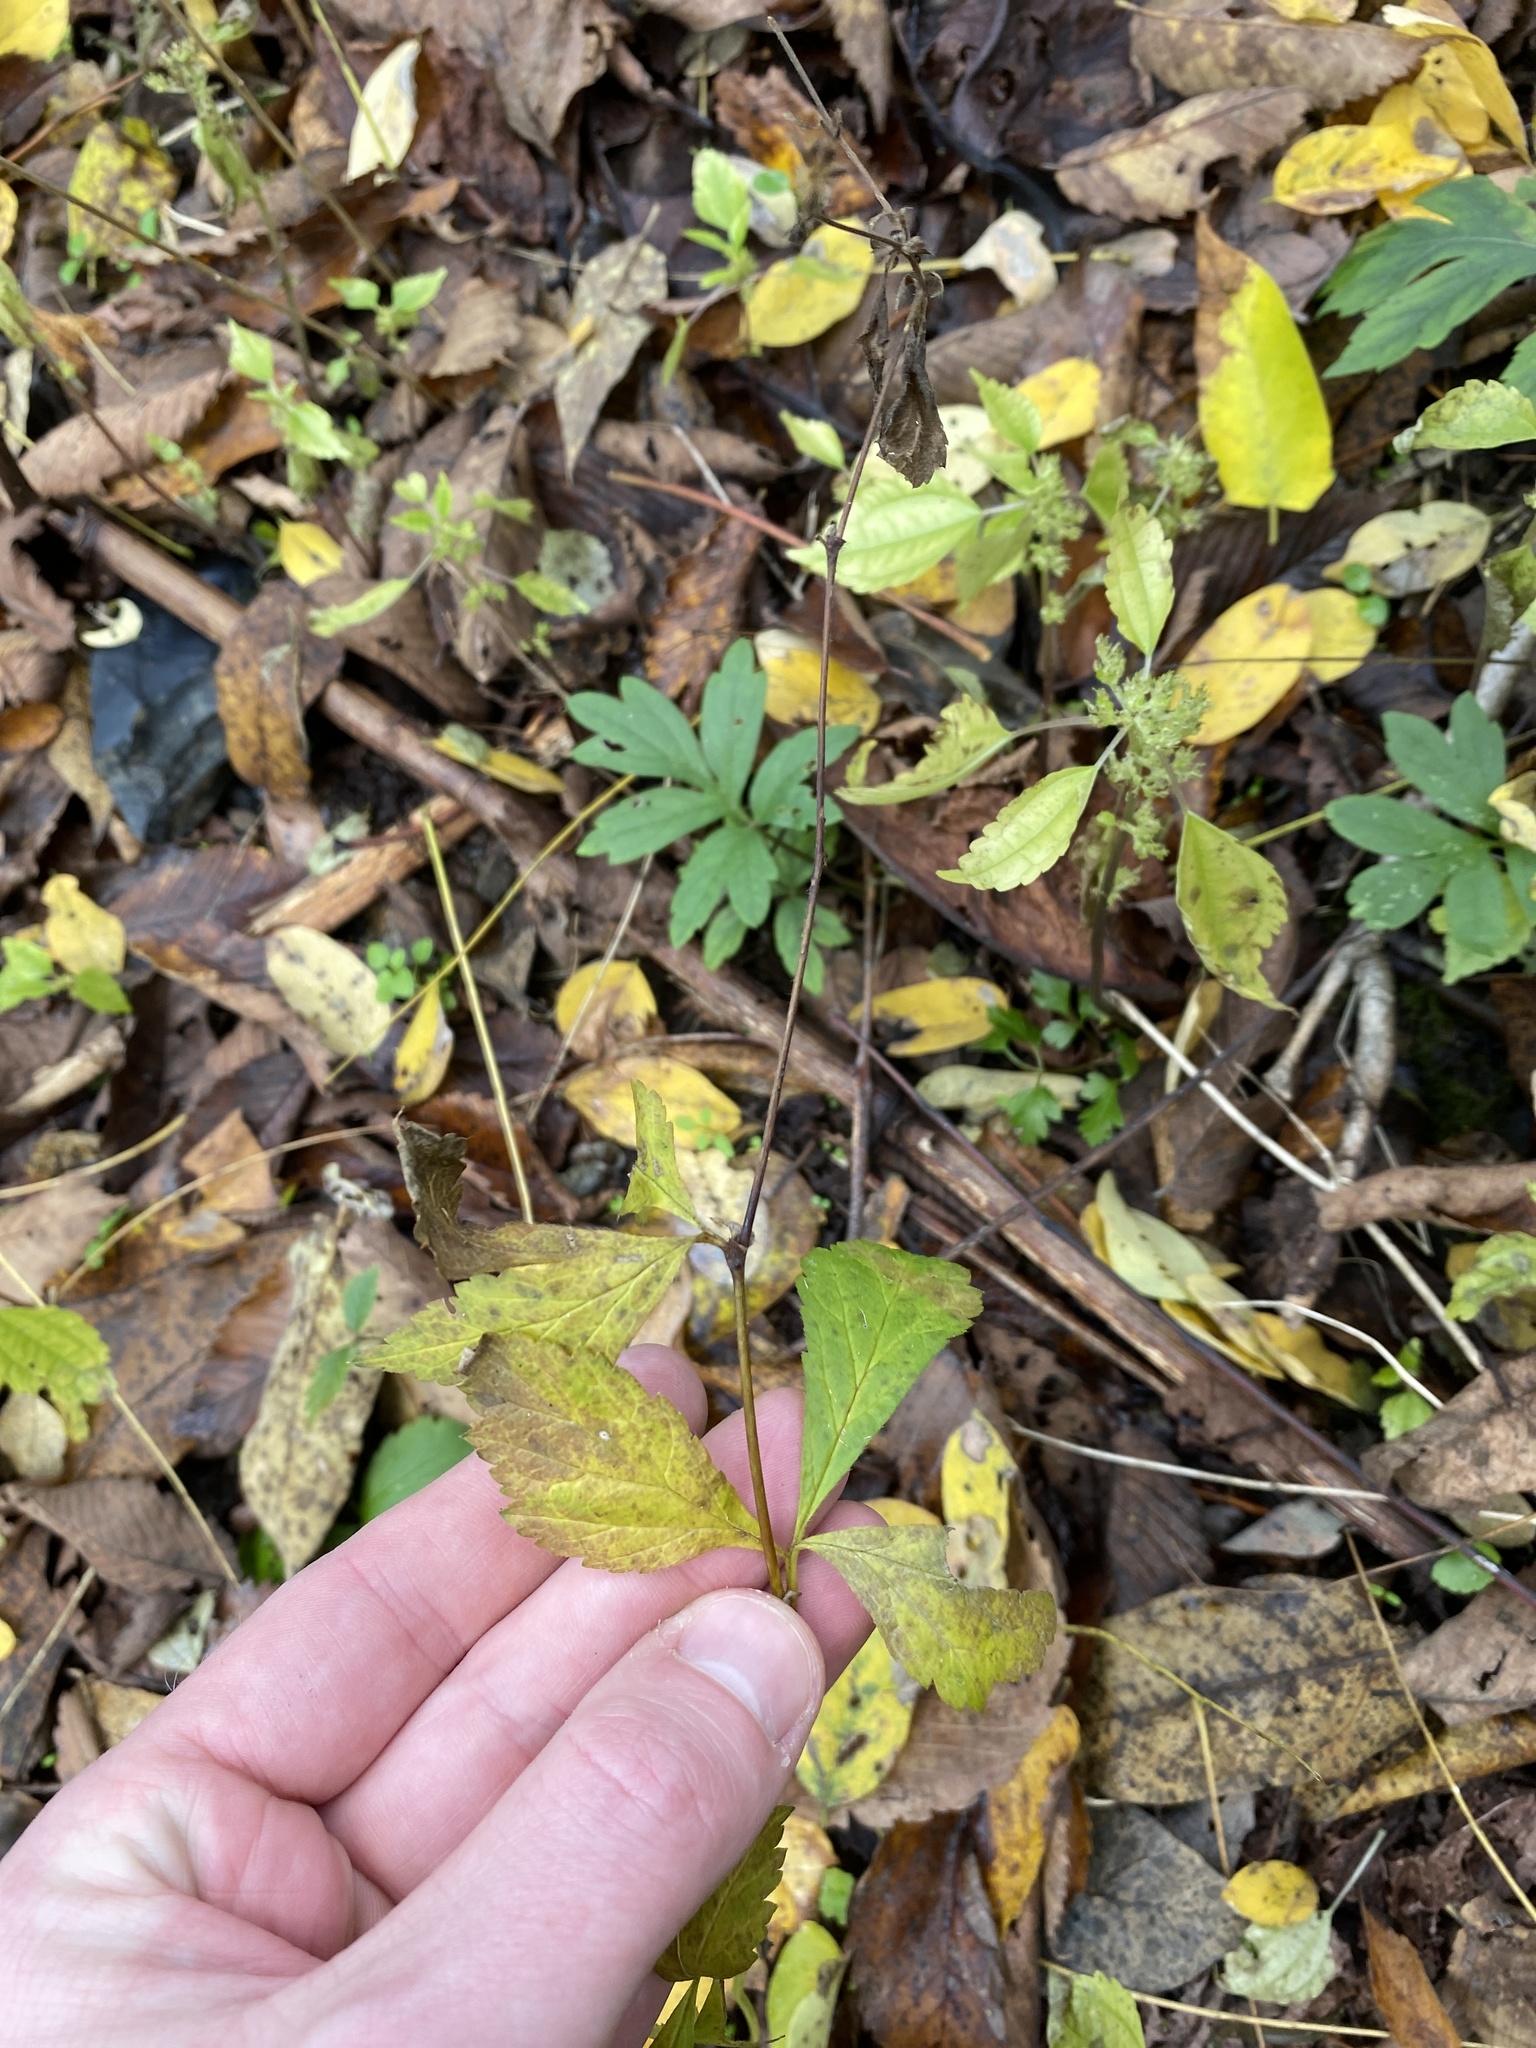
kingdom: Plantae
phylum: Tracheophyta
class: Magnoliopsida
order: Rosales
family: Rosaceae
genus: Geum
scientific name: Geum canadense
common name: White avens
